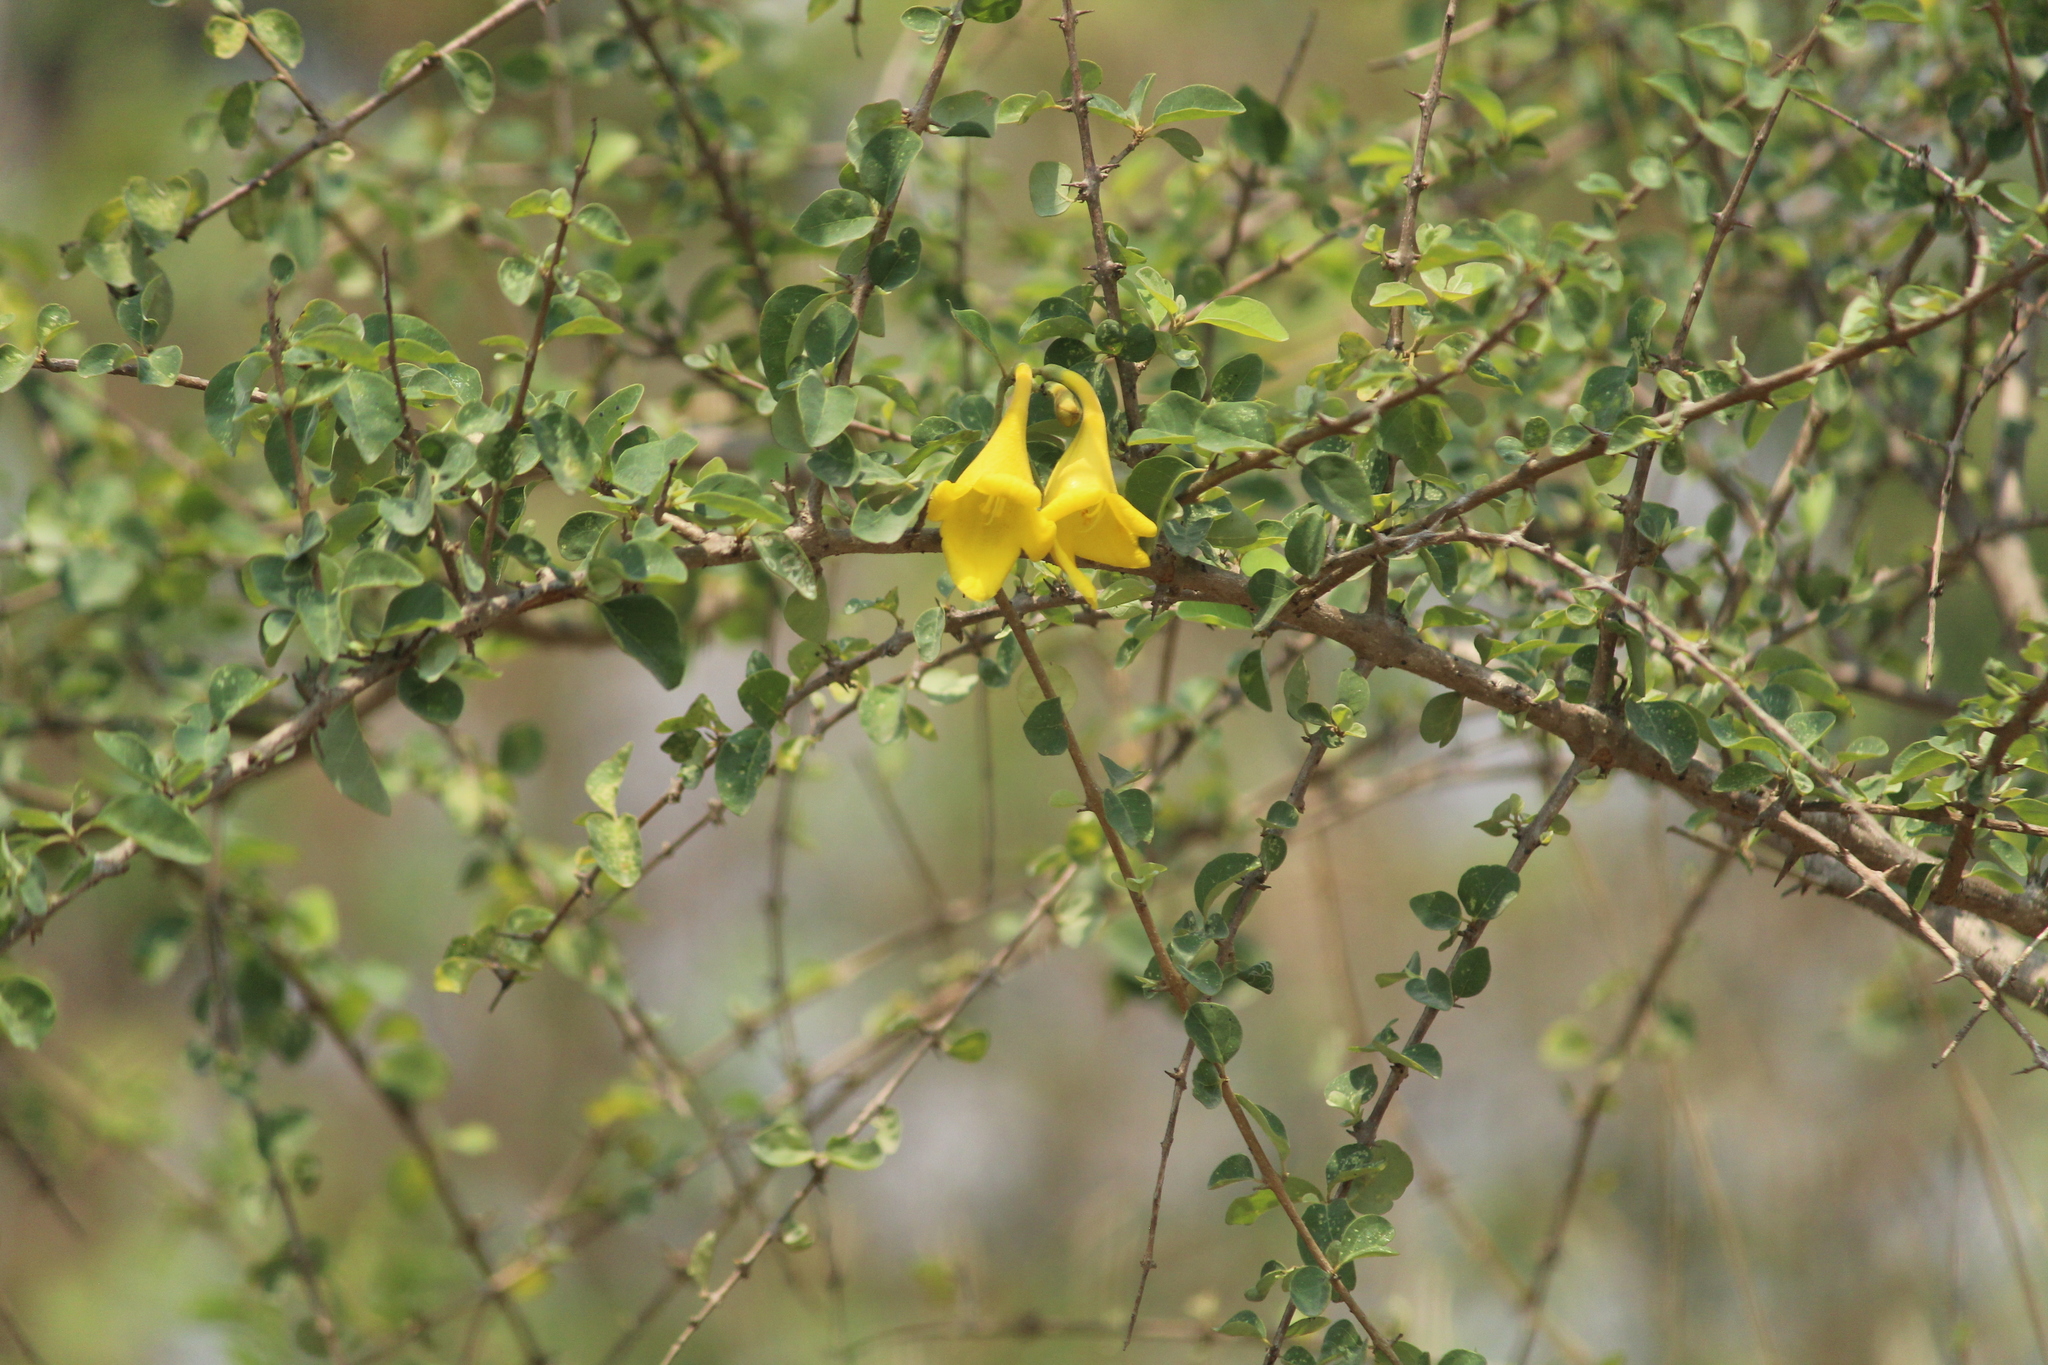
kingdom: Plantae
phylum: Tracheophyta
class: Magnoliopsida
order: Lamiales
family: Lamiaceae
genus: Gmelina
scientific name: Gmelina asiatica
